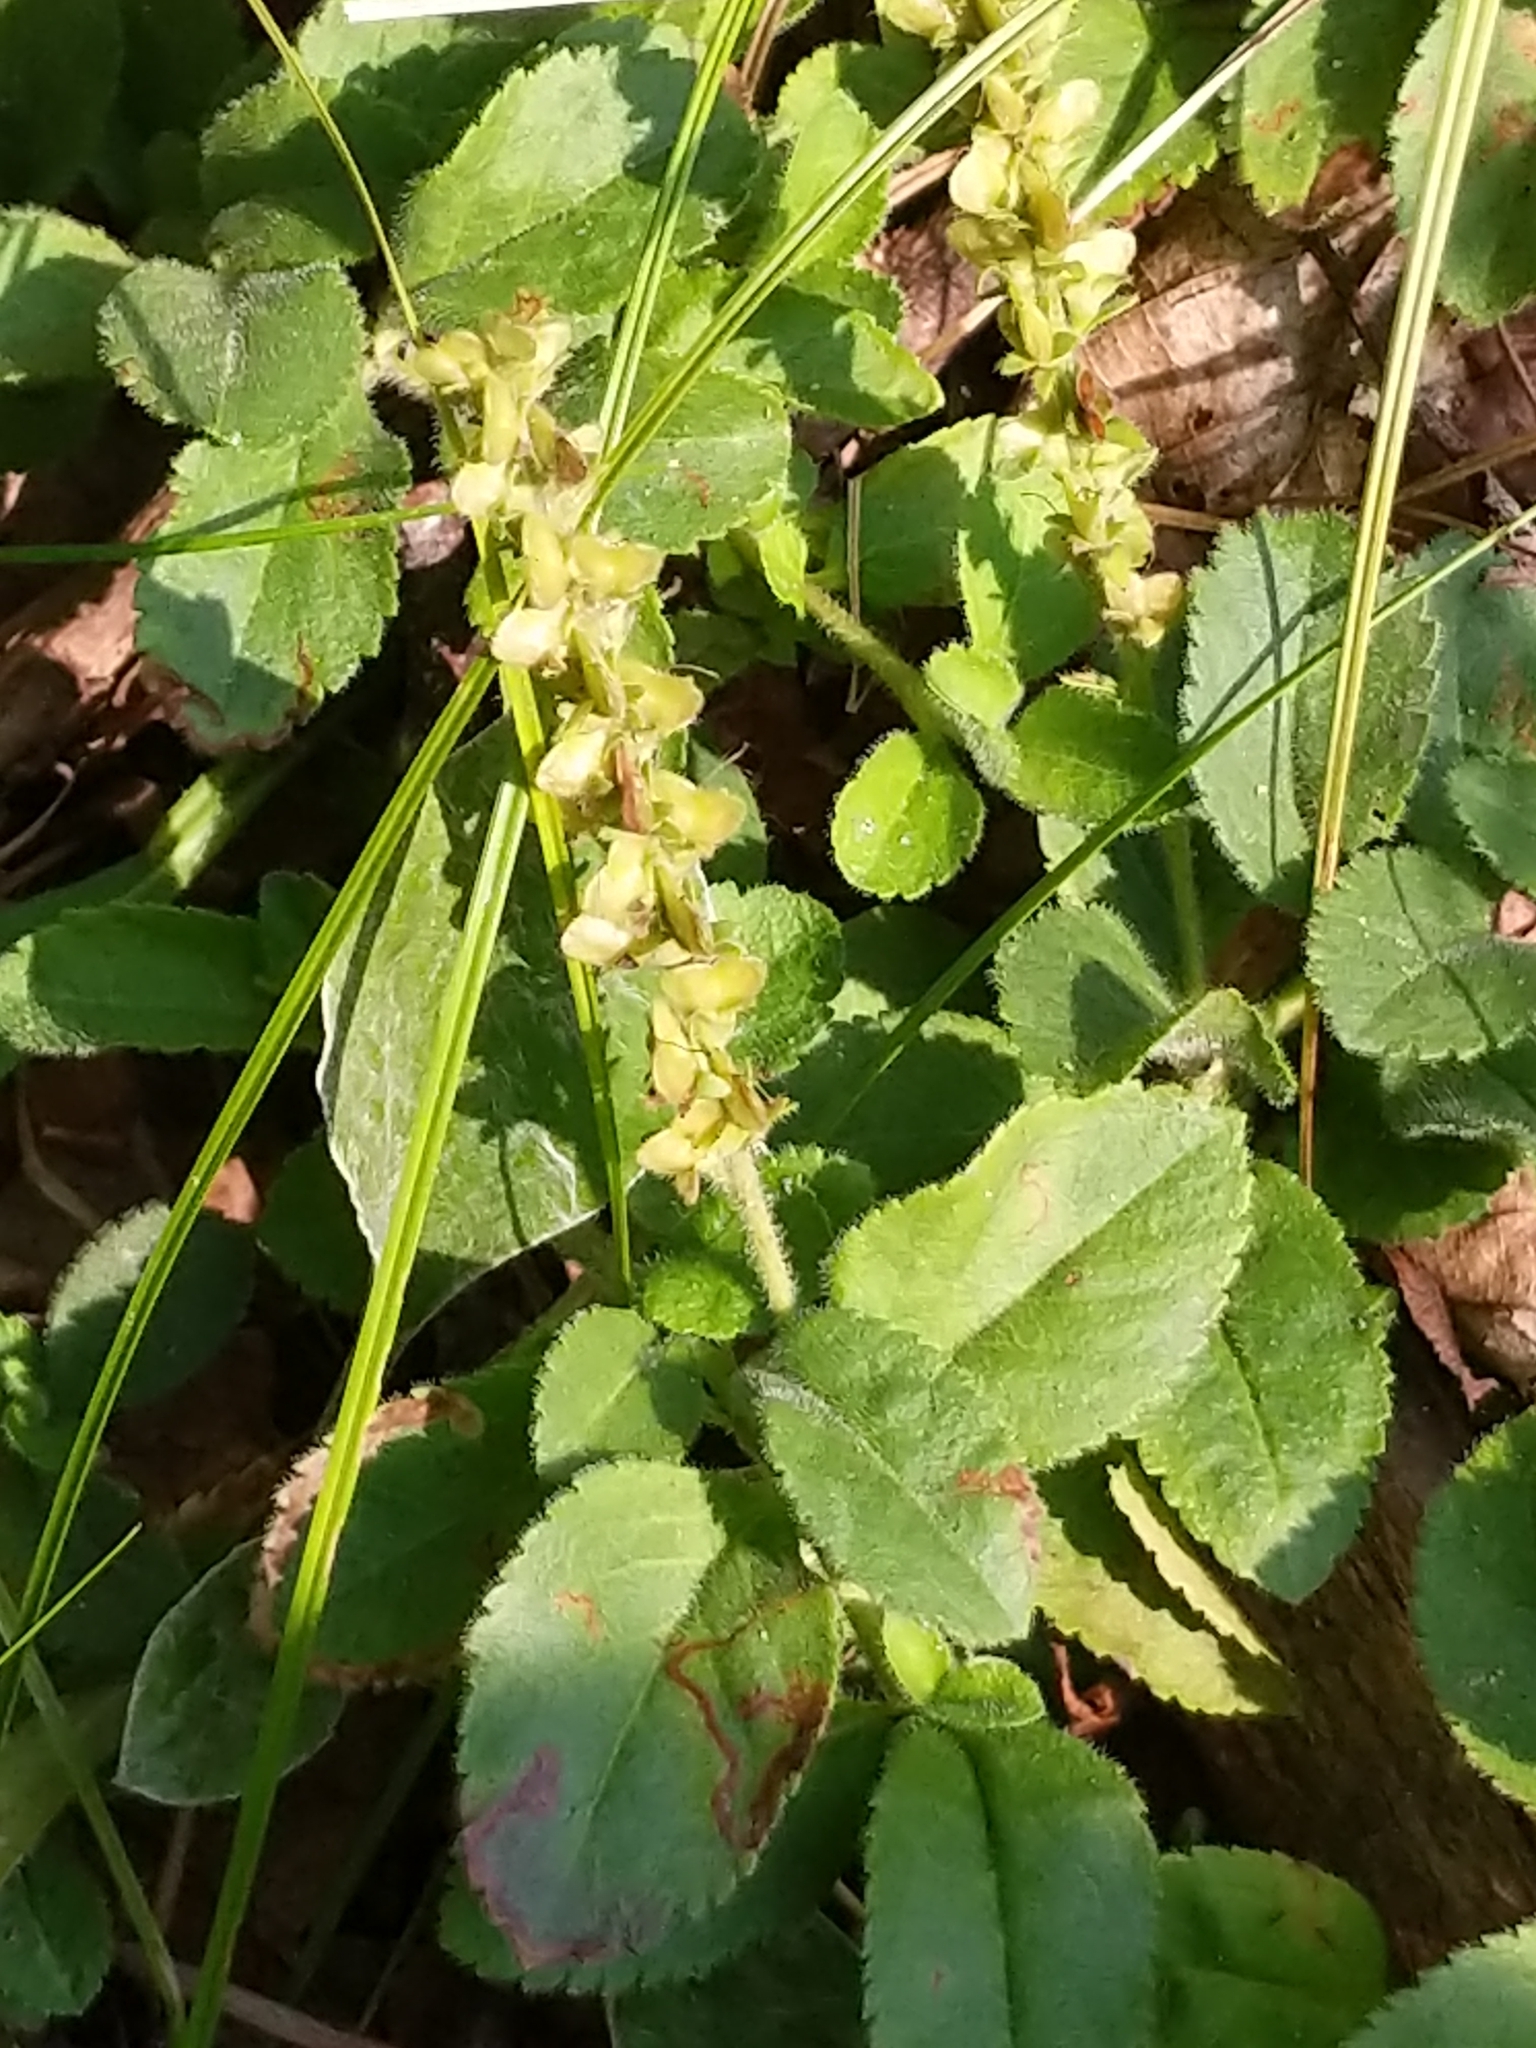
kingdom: Plantae
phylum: Tracheophyta
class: Magnoliopsida
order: Lamiales
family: Plantaginaceae
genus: Veronica
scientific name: Veronica officinalis
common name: Common speedwell
